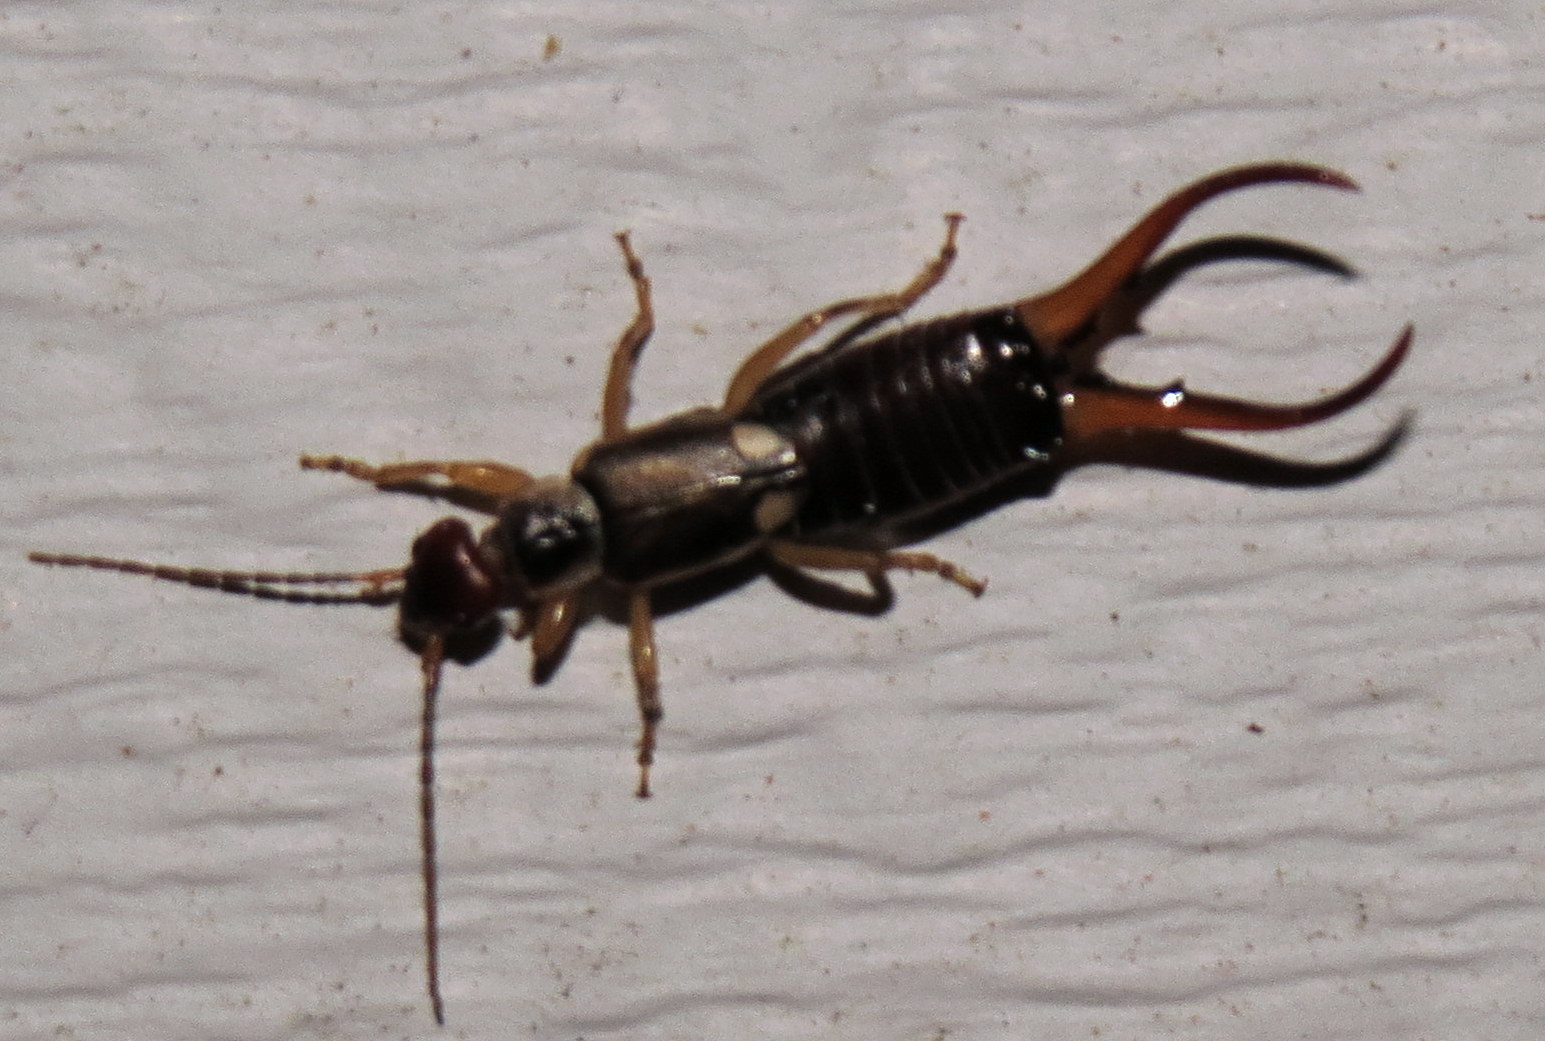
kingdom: Animalia
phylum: Arthropoda
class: Insecta
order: Dermaptera
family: Forficulidae
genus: Forficula
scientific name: Forficula
